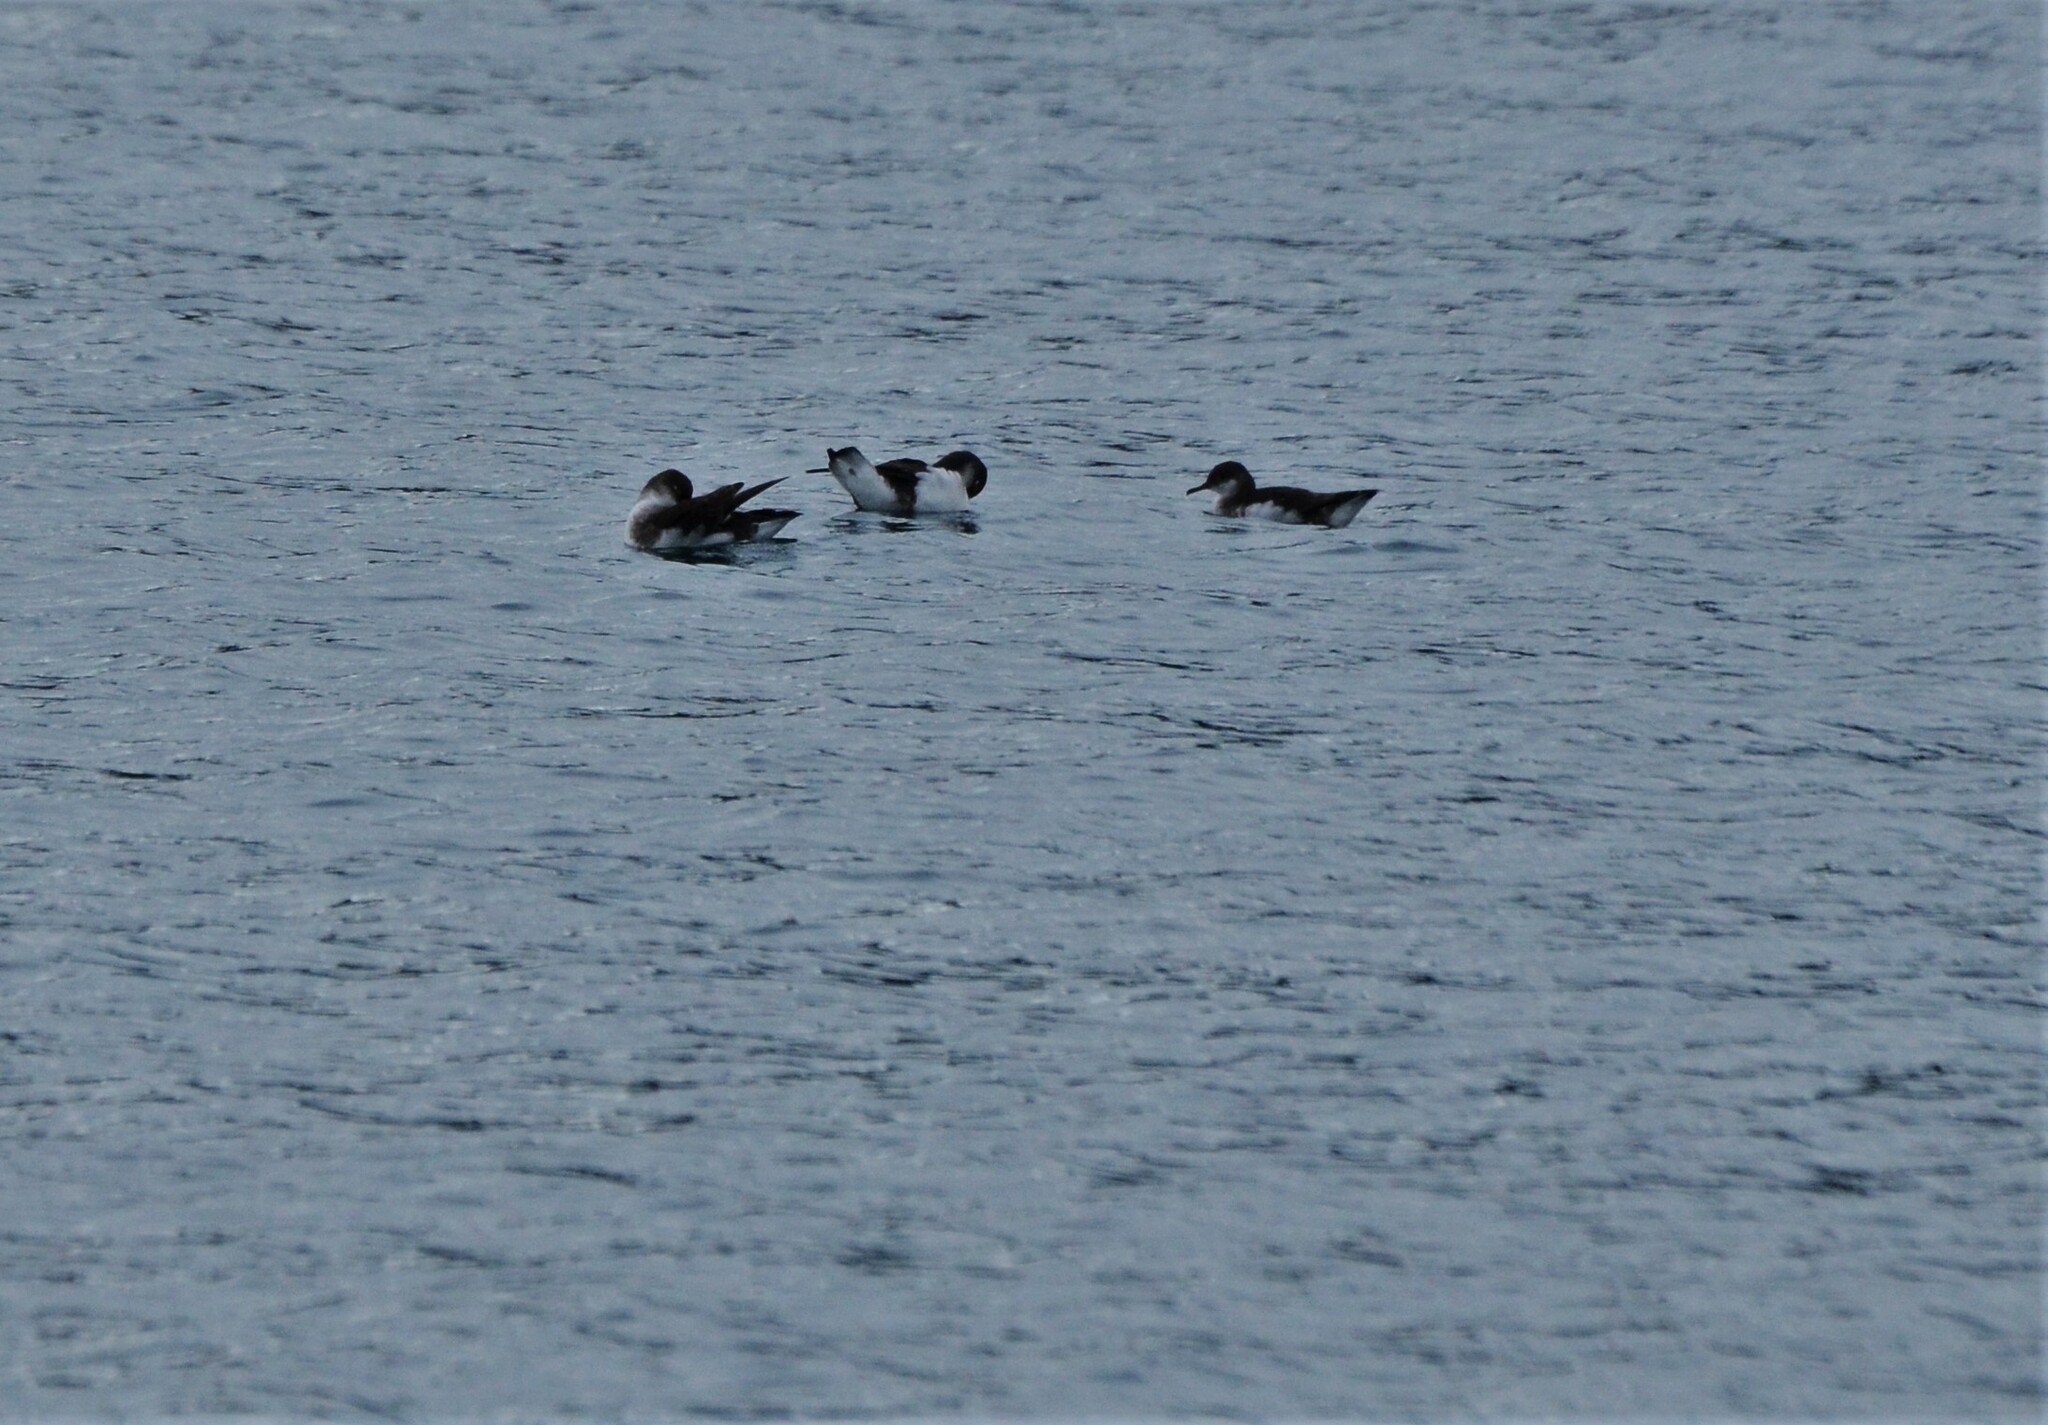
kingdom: Animalia
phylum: Chordata
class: Aves
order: Procellariiformes
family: Procellariidae
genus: Puffinus
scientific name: Puffinus gavia
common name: Fluttering shearwater
